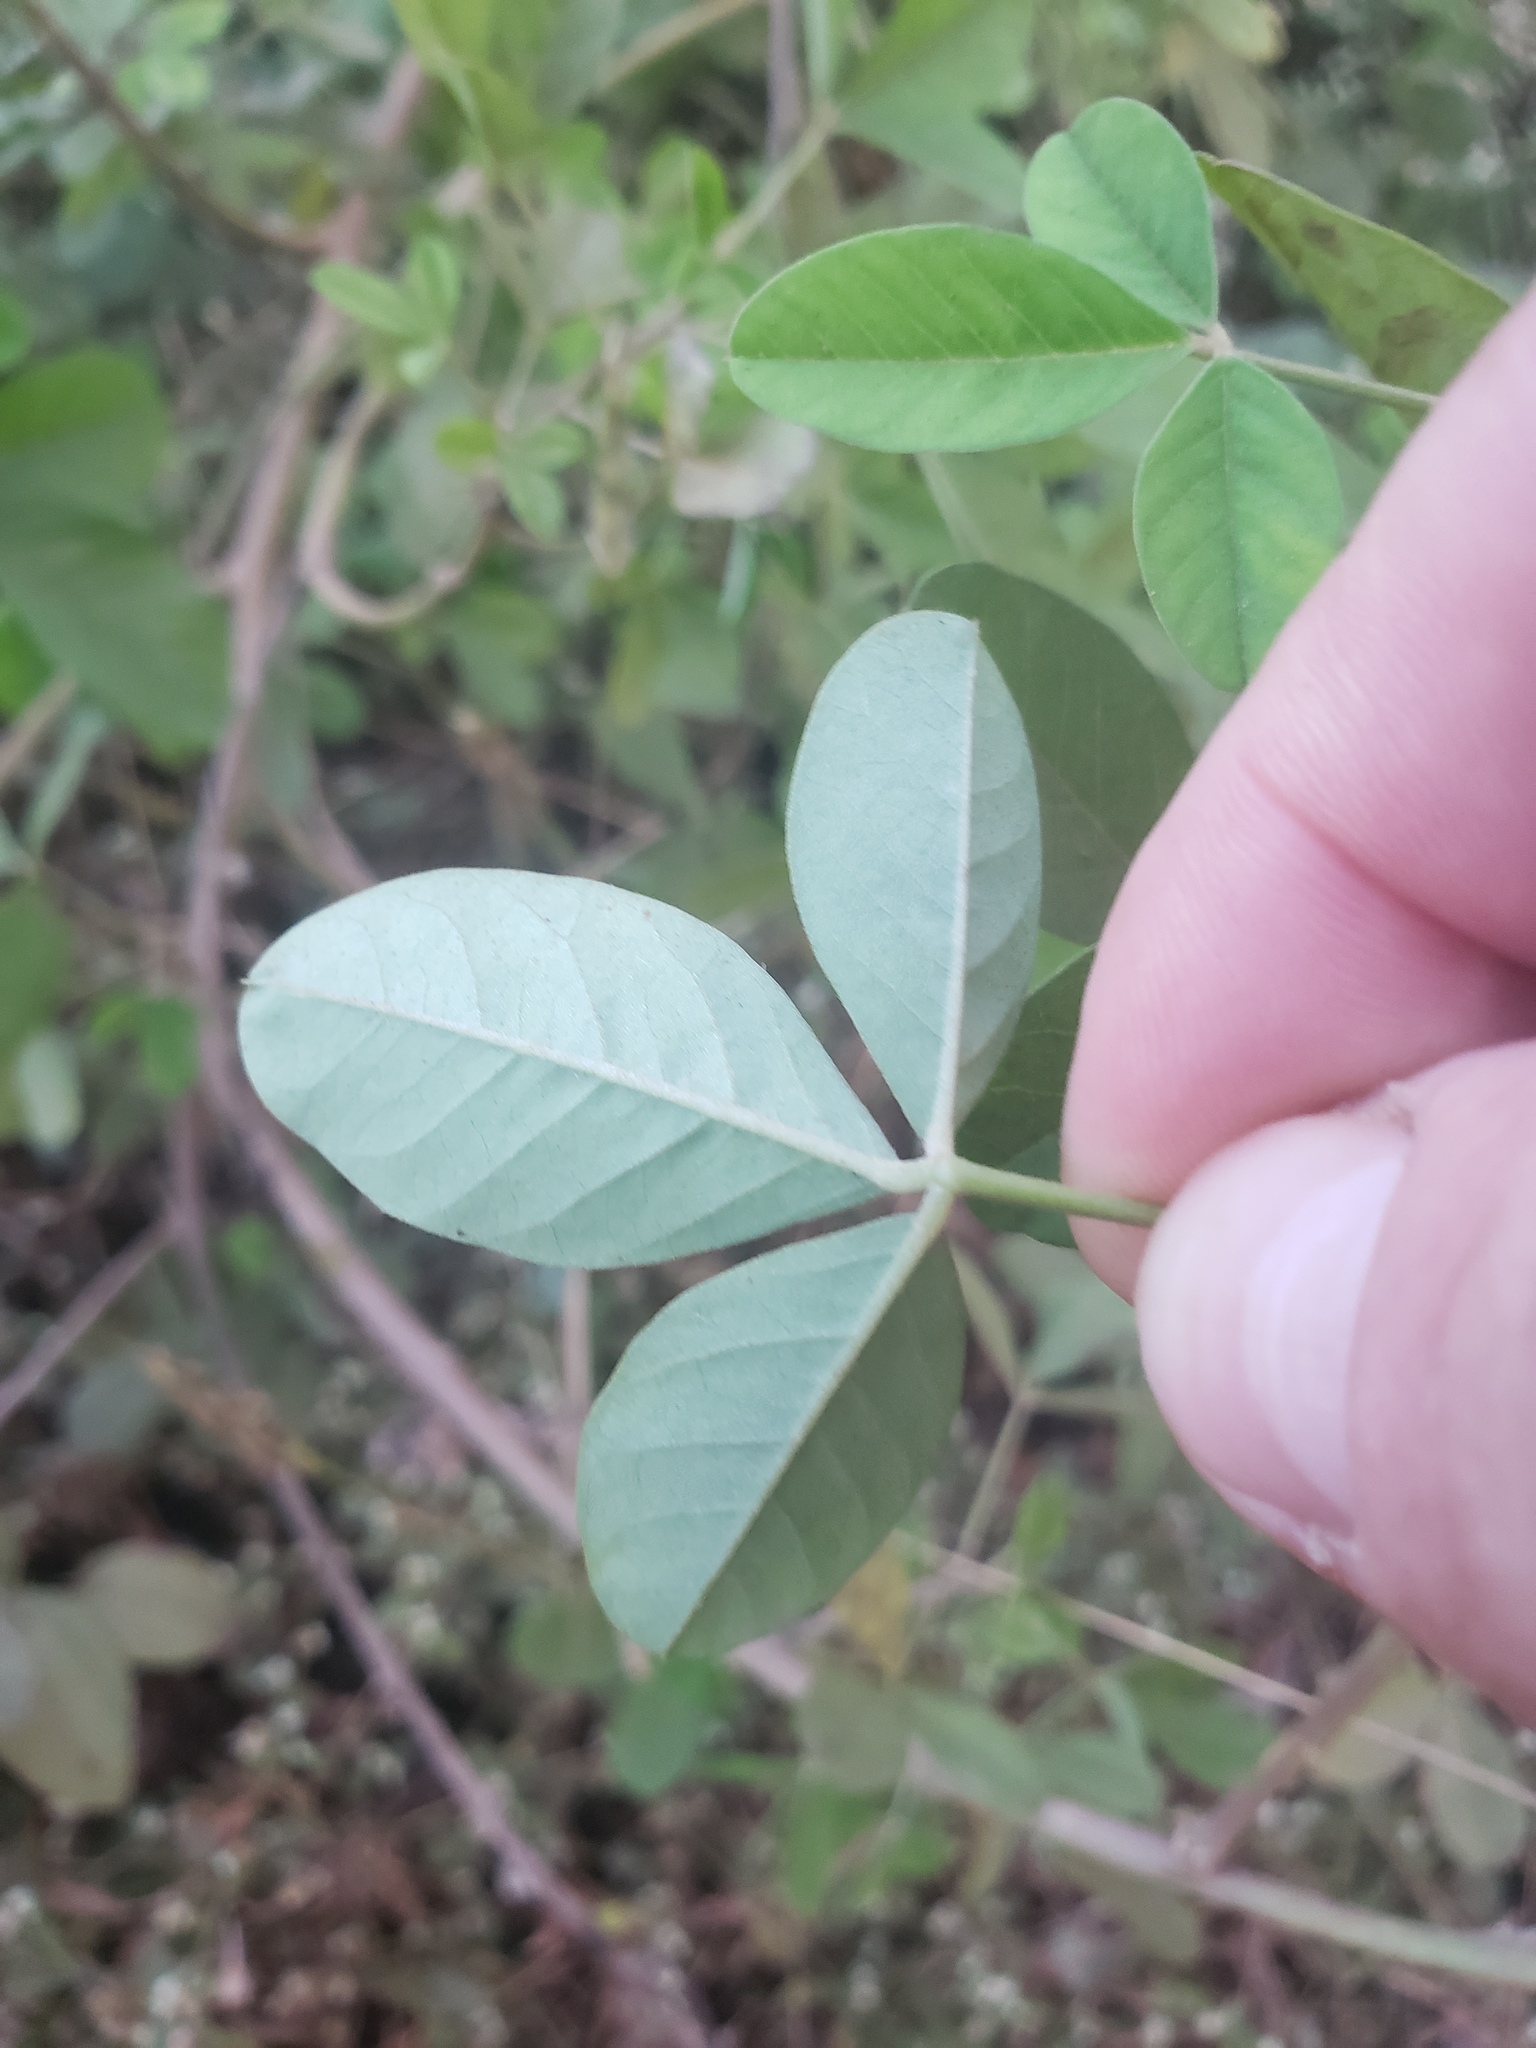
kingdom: Plantae
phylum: Tracheophyta
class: Magnoliopsida
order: Fabales
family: Fabaceae
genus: Crotalaria
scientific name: Crotalaria pallida
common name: Smooth rattlebox
